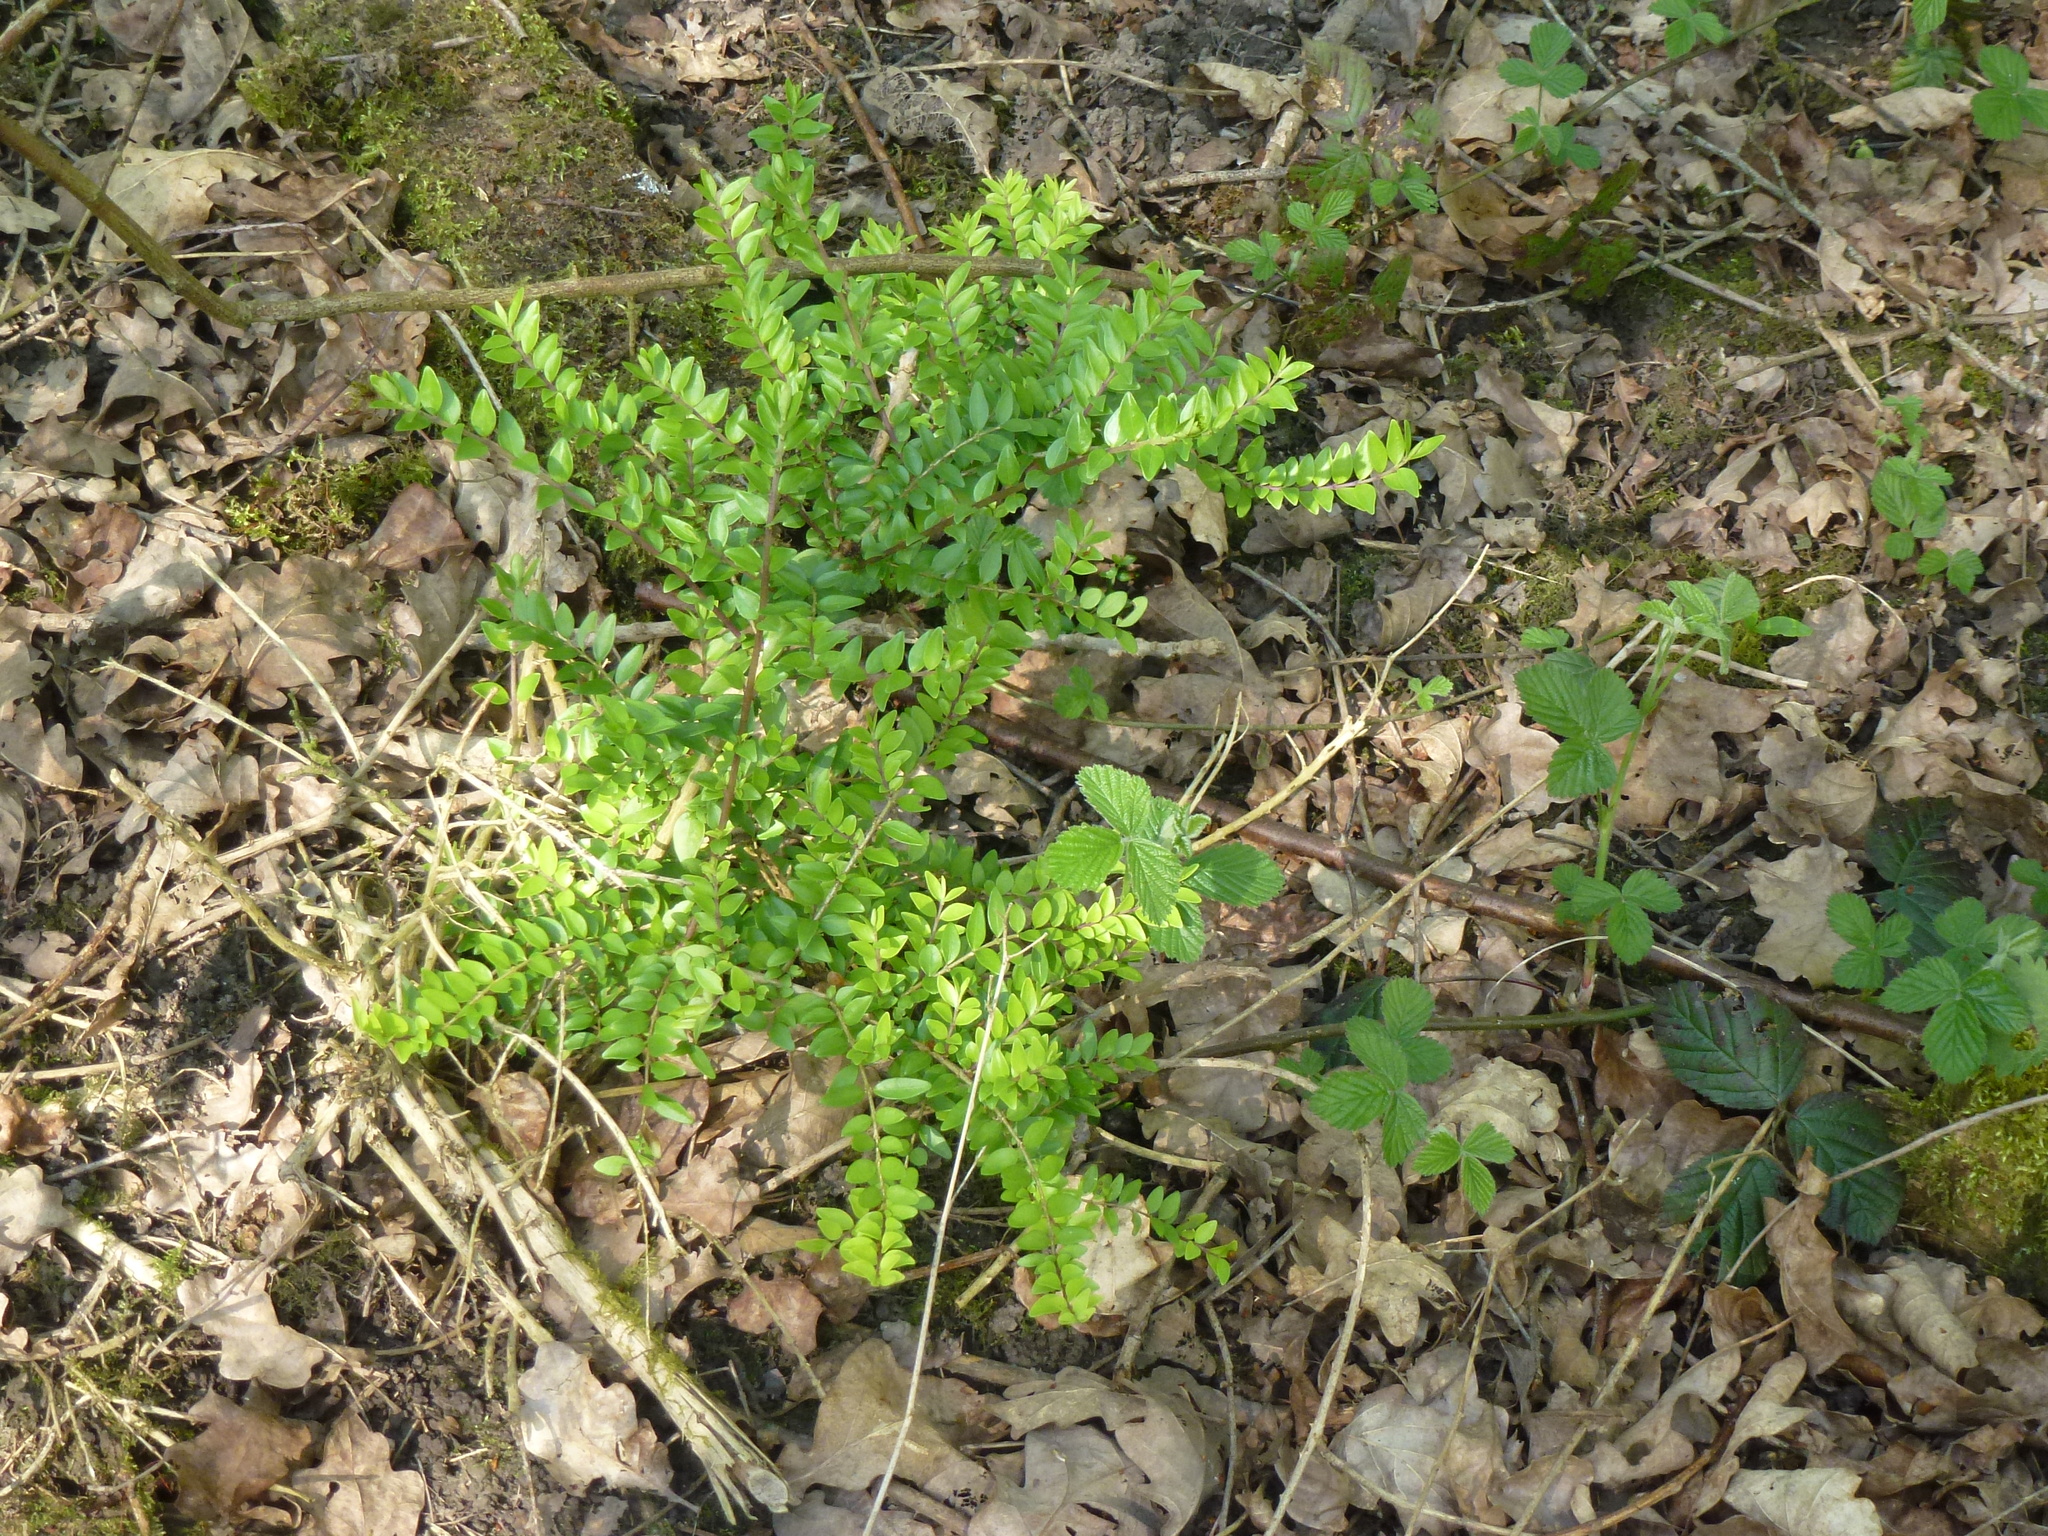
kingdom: Plantae
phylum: Tracheophyta
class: Magnoliopsida
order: Dipsacales
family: Caprifoliaceae
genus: Lonicera
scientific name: Lonicera pileata
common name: Box-leaved honeysuckle
